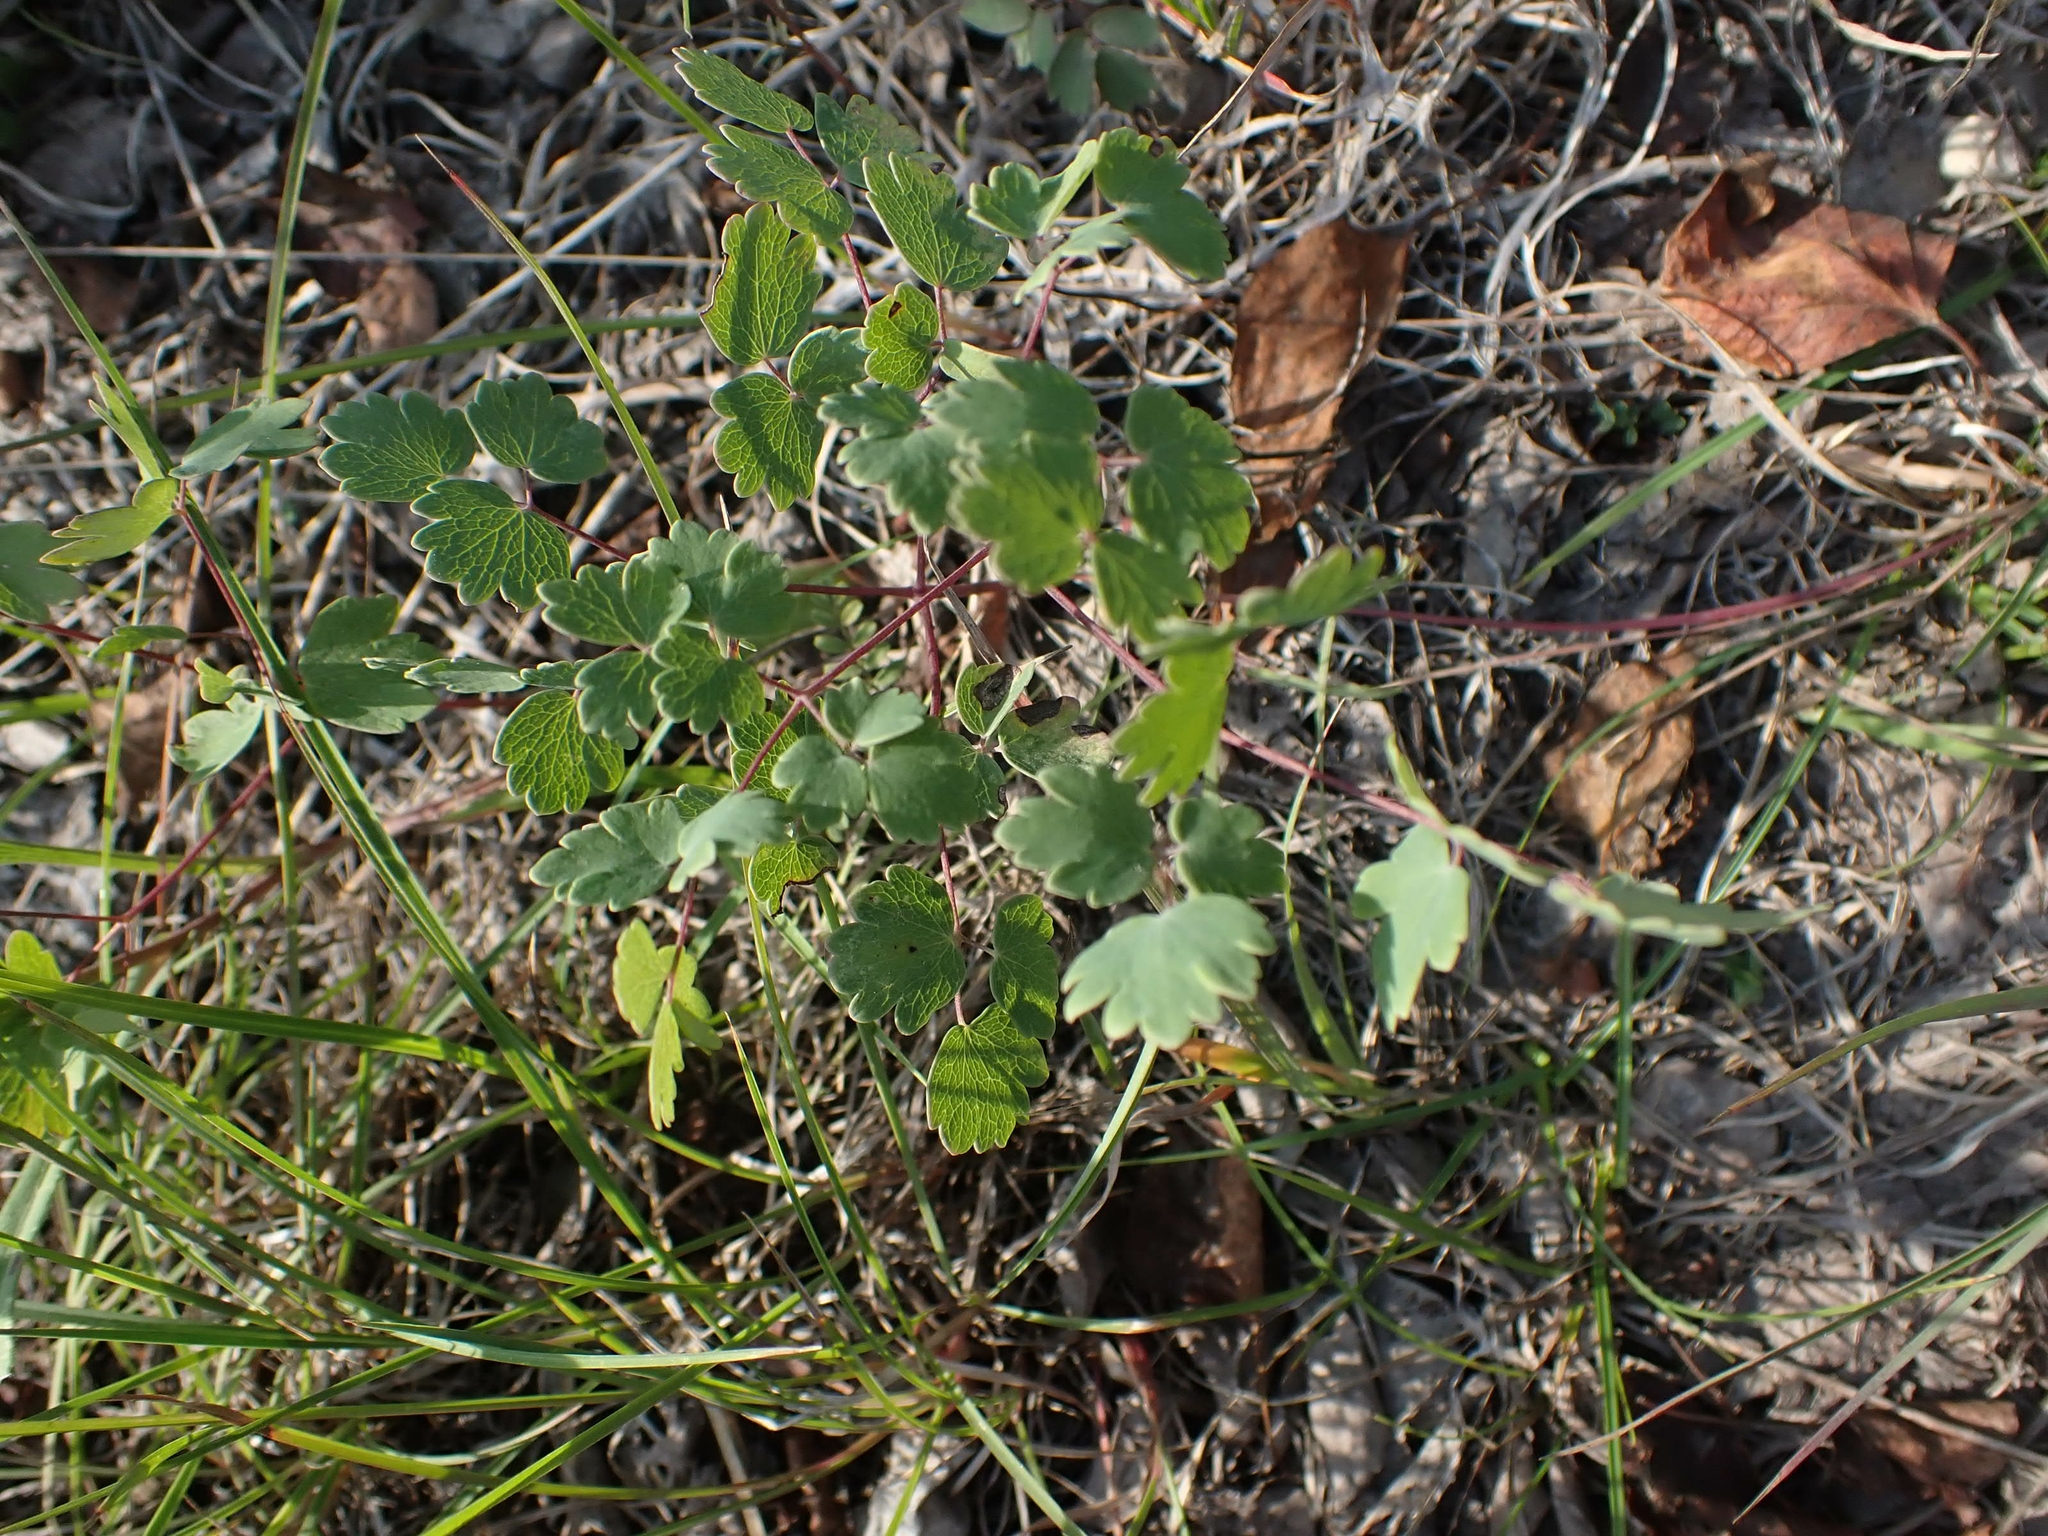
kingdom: Plantae
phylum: Tracheophyta
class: Magnoliopsida
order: Ranunculales
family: Ranunculaceae
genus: Thalictrum
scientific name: Thalictrum venulosum
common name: Early meadow-rue
